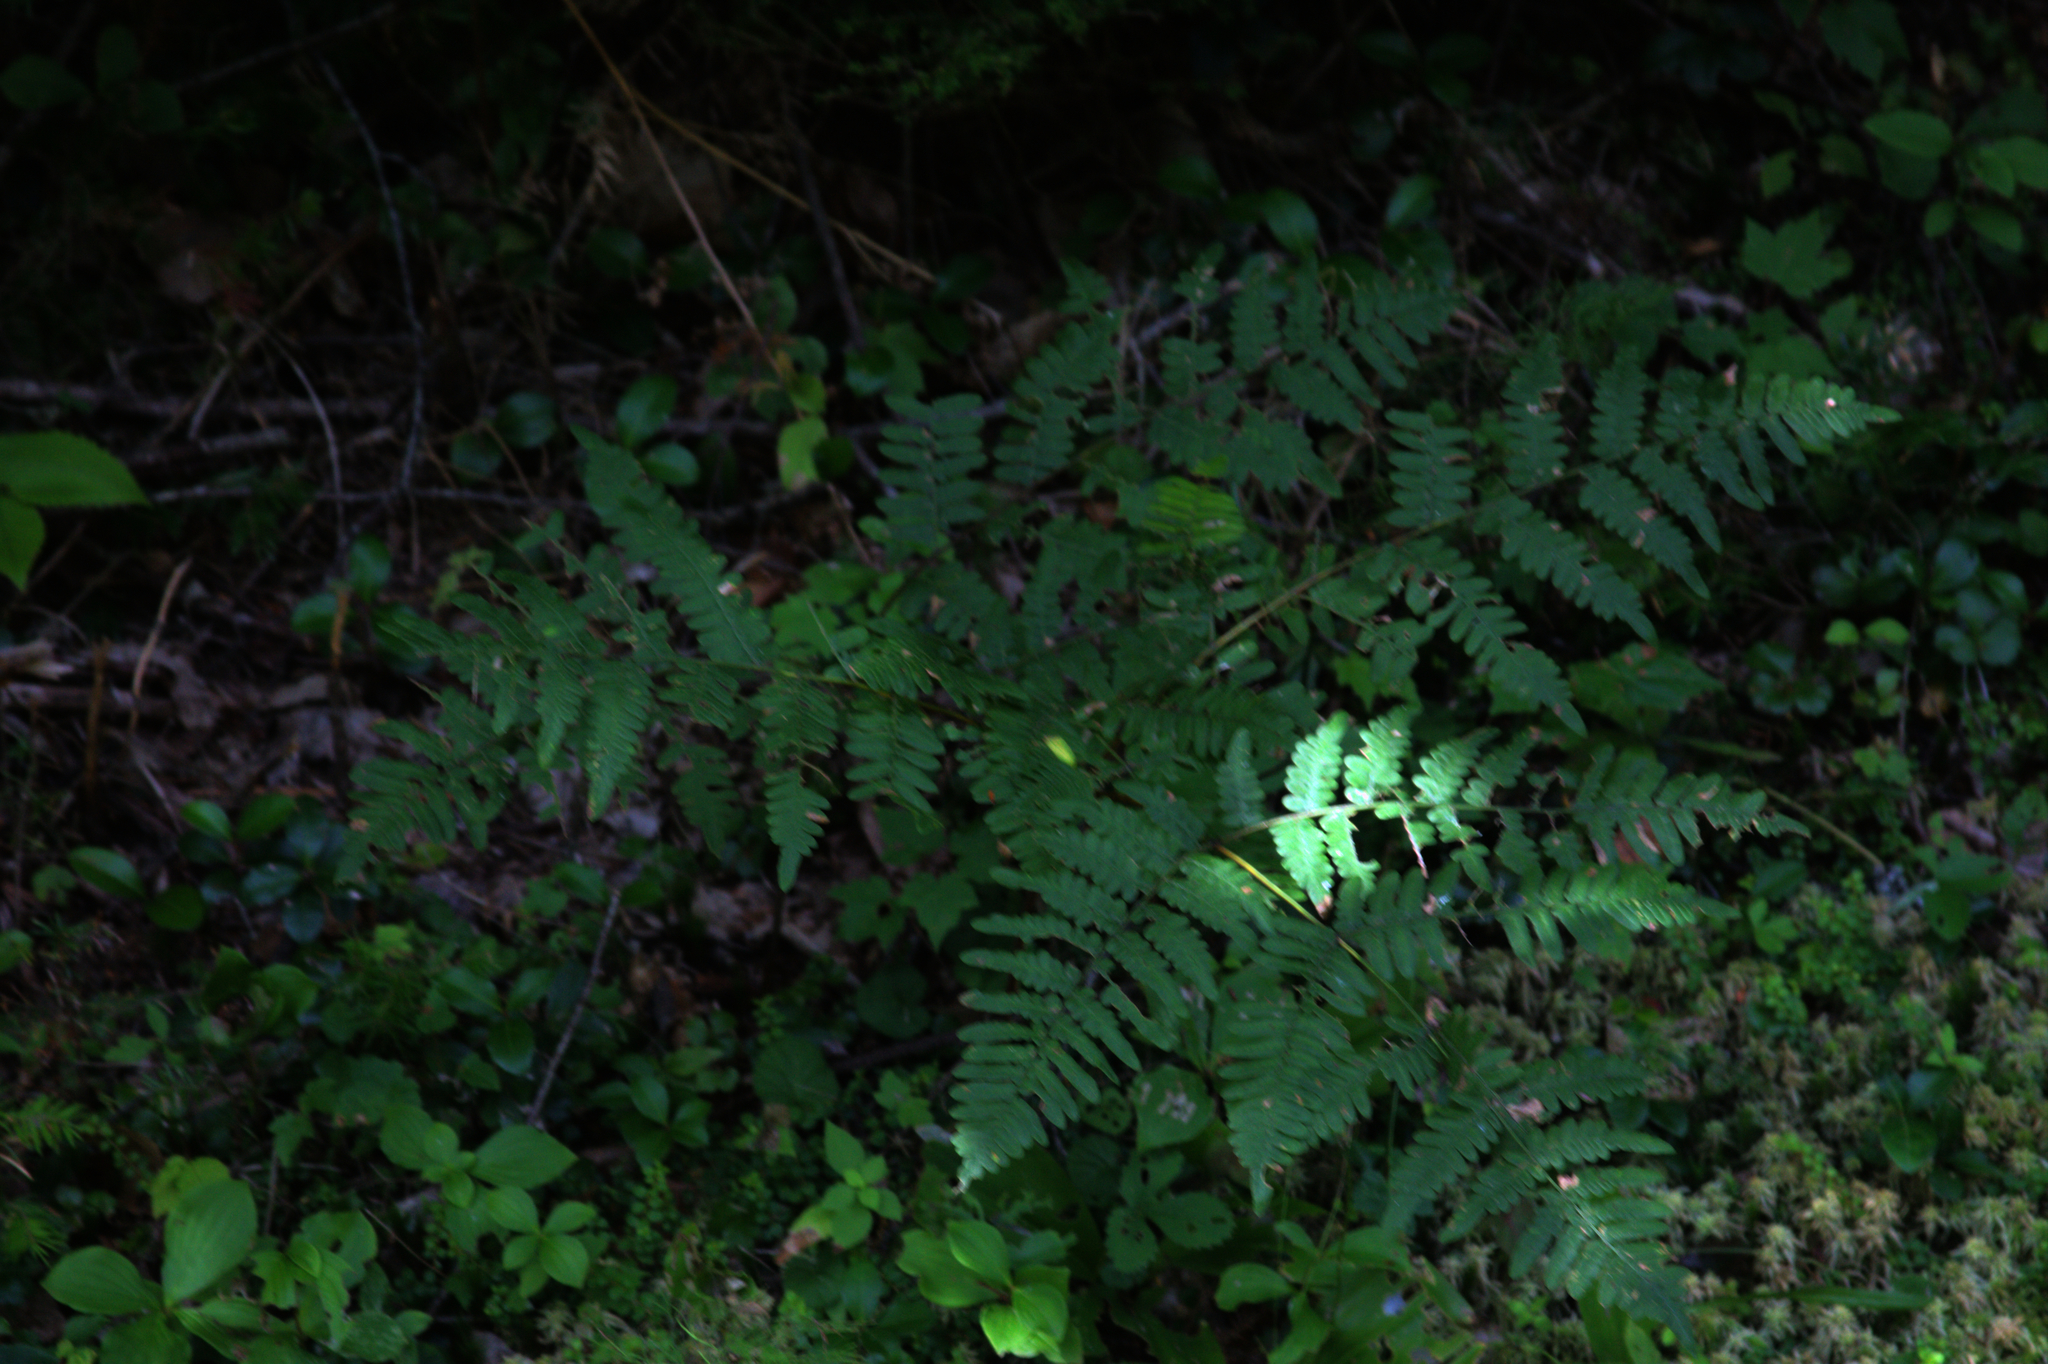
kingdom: Plantae
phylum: Tracheophyta
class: Polypodiopsida
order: Polypodiales
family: Dennstaedtiaceae
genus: Pteridium
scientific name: Pteridium aquilinum
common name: Bracken
